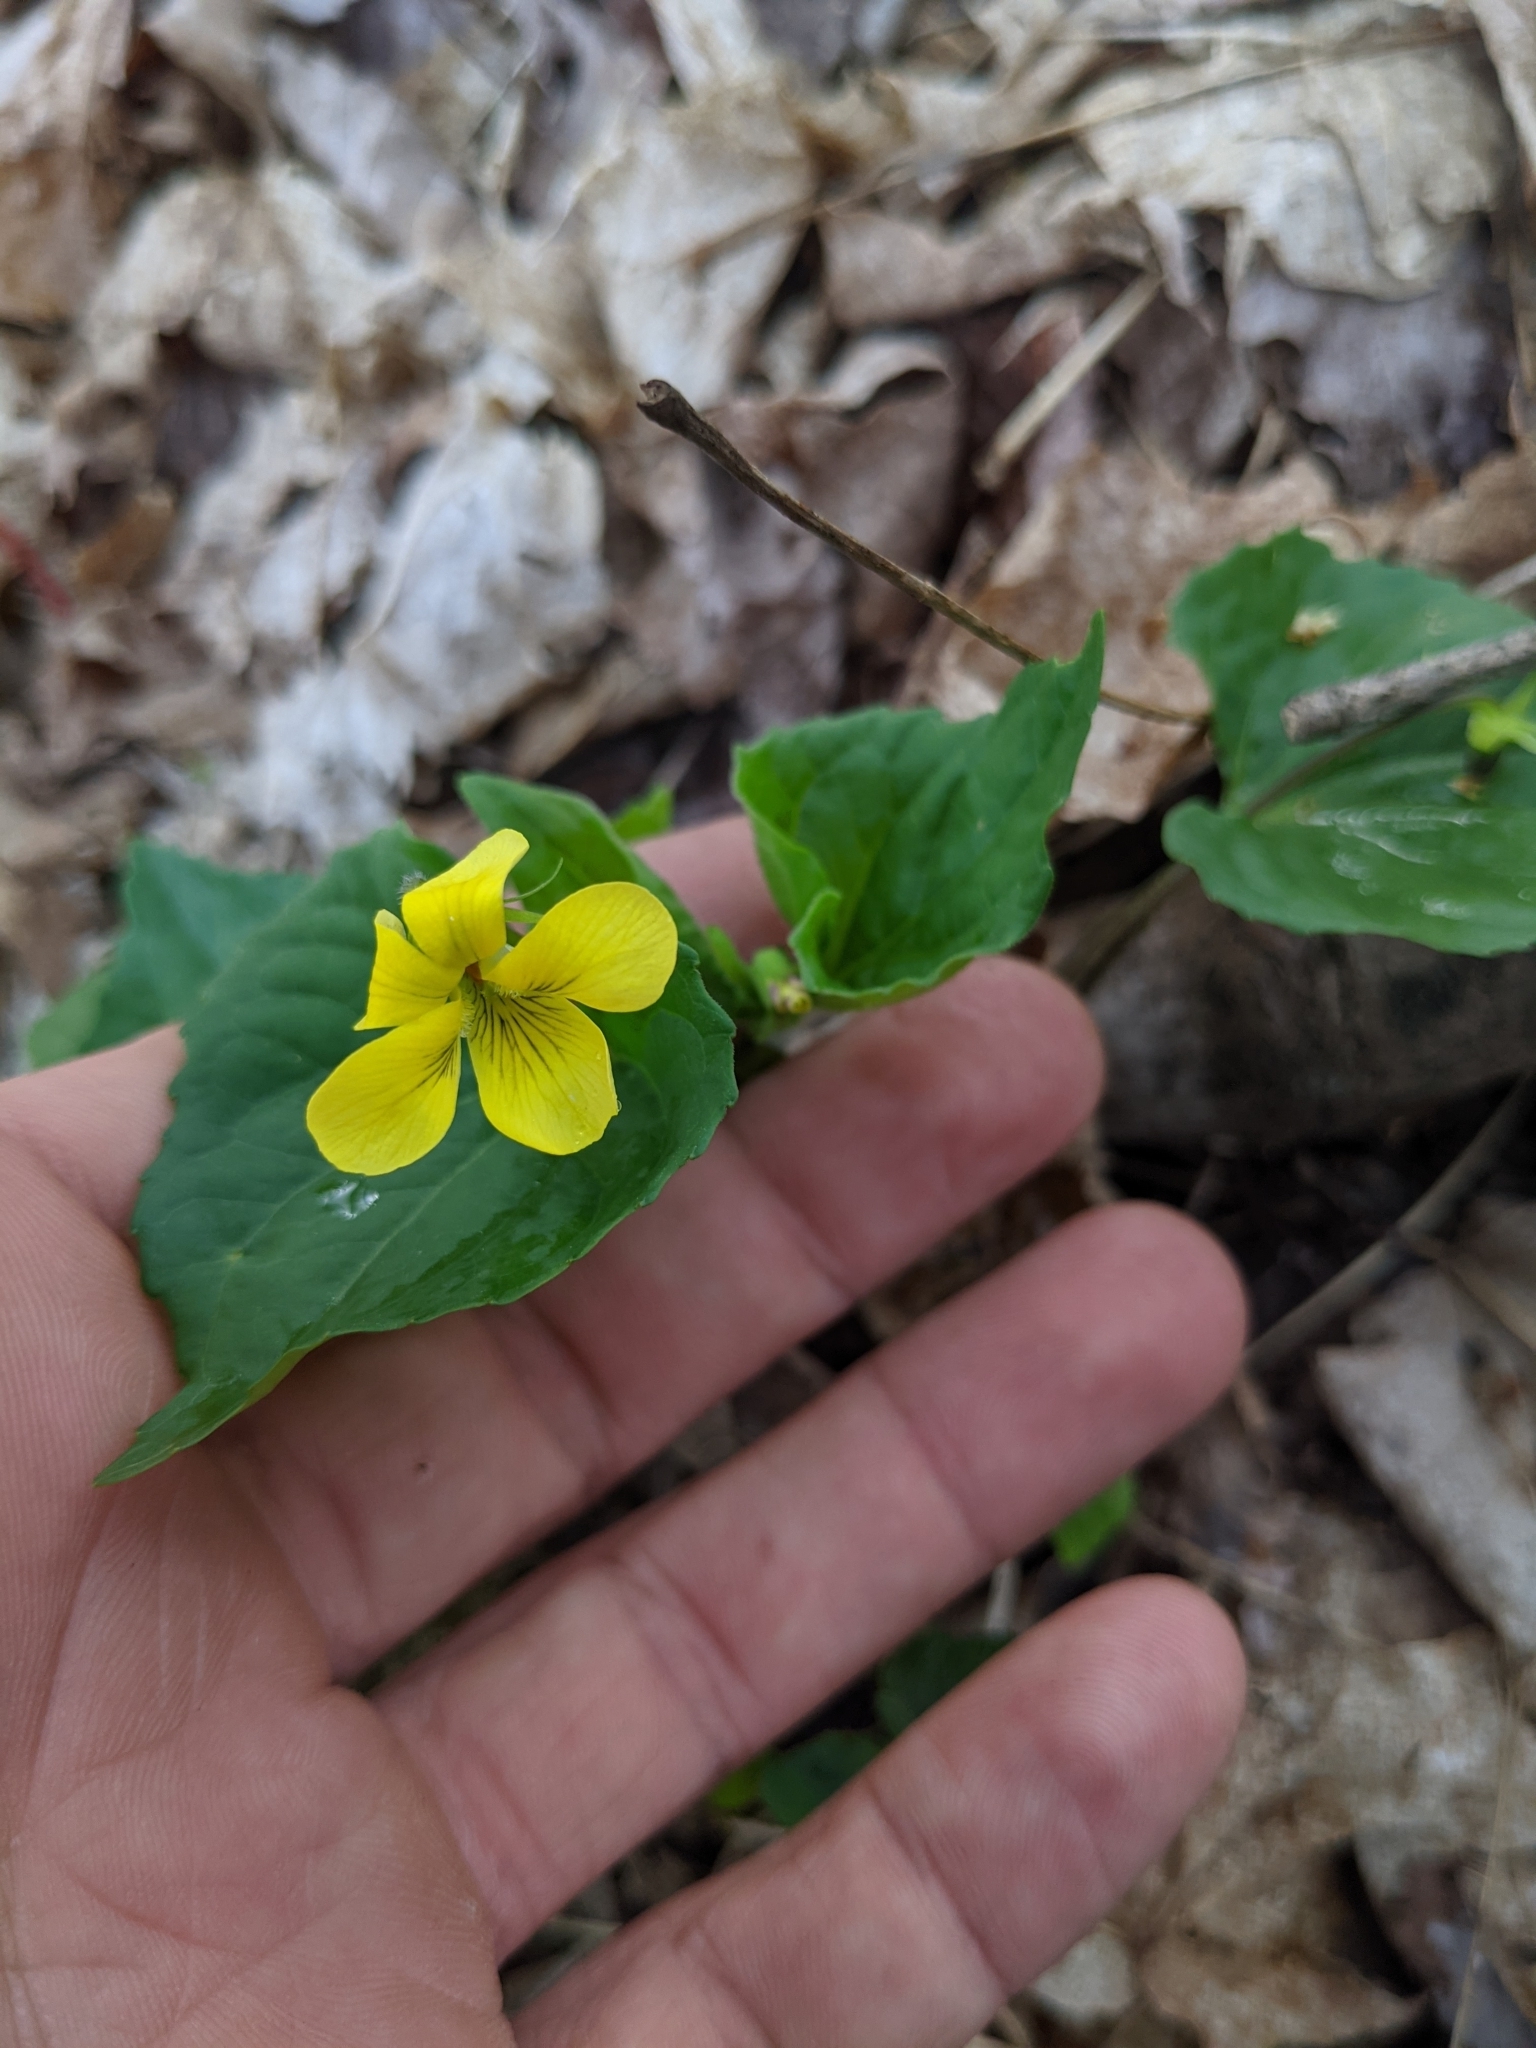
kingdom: Plantae
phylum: Tracheophyta
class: Magnoliopsida
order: Malpighiales
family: Violaceae
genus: Viola
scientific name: Viola eriocarpa
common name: Smooth yellow violet
